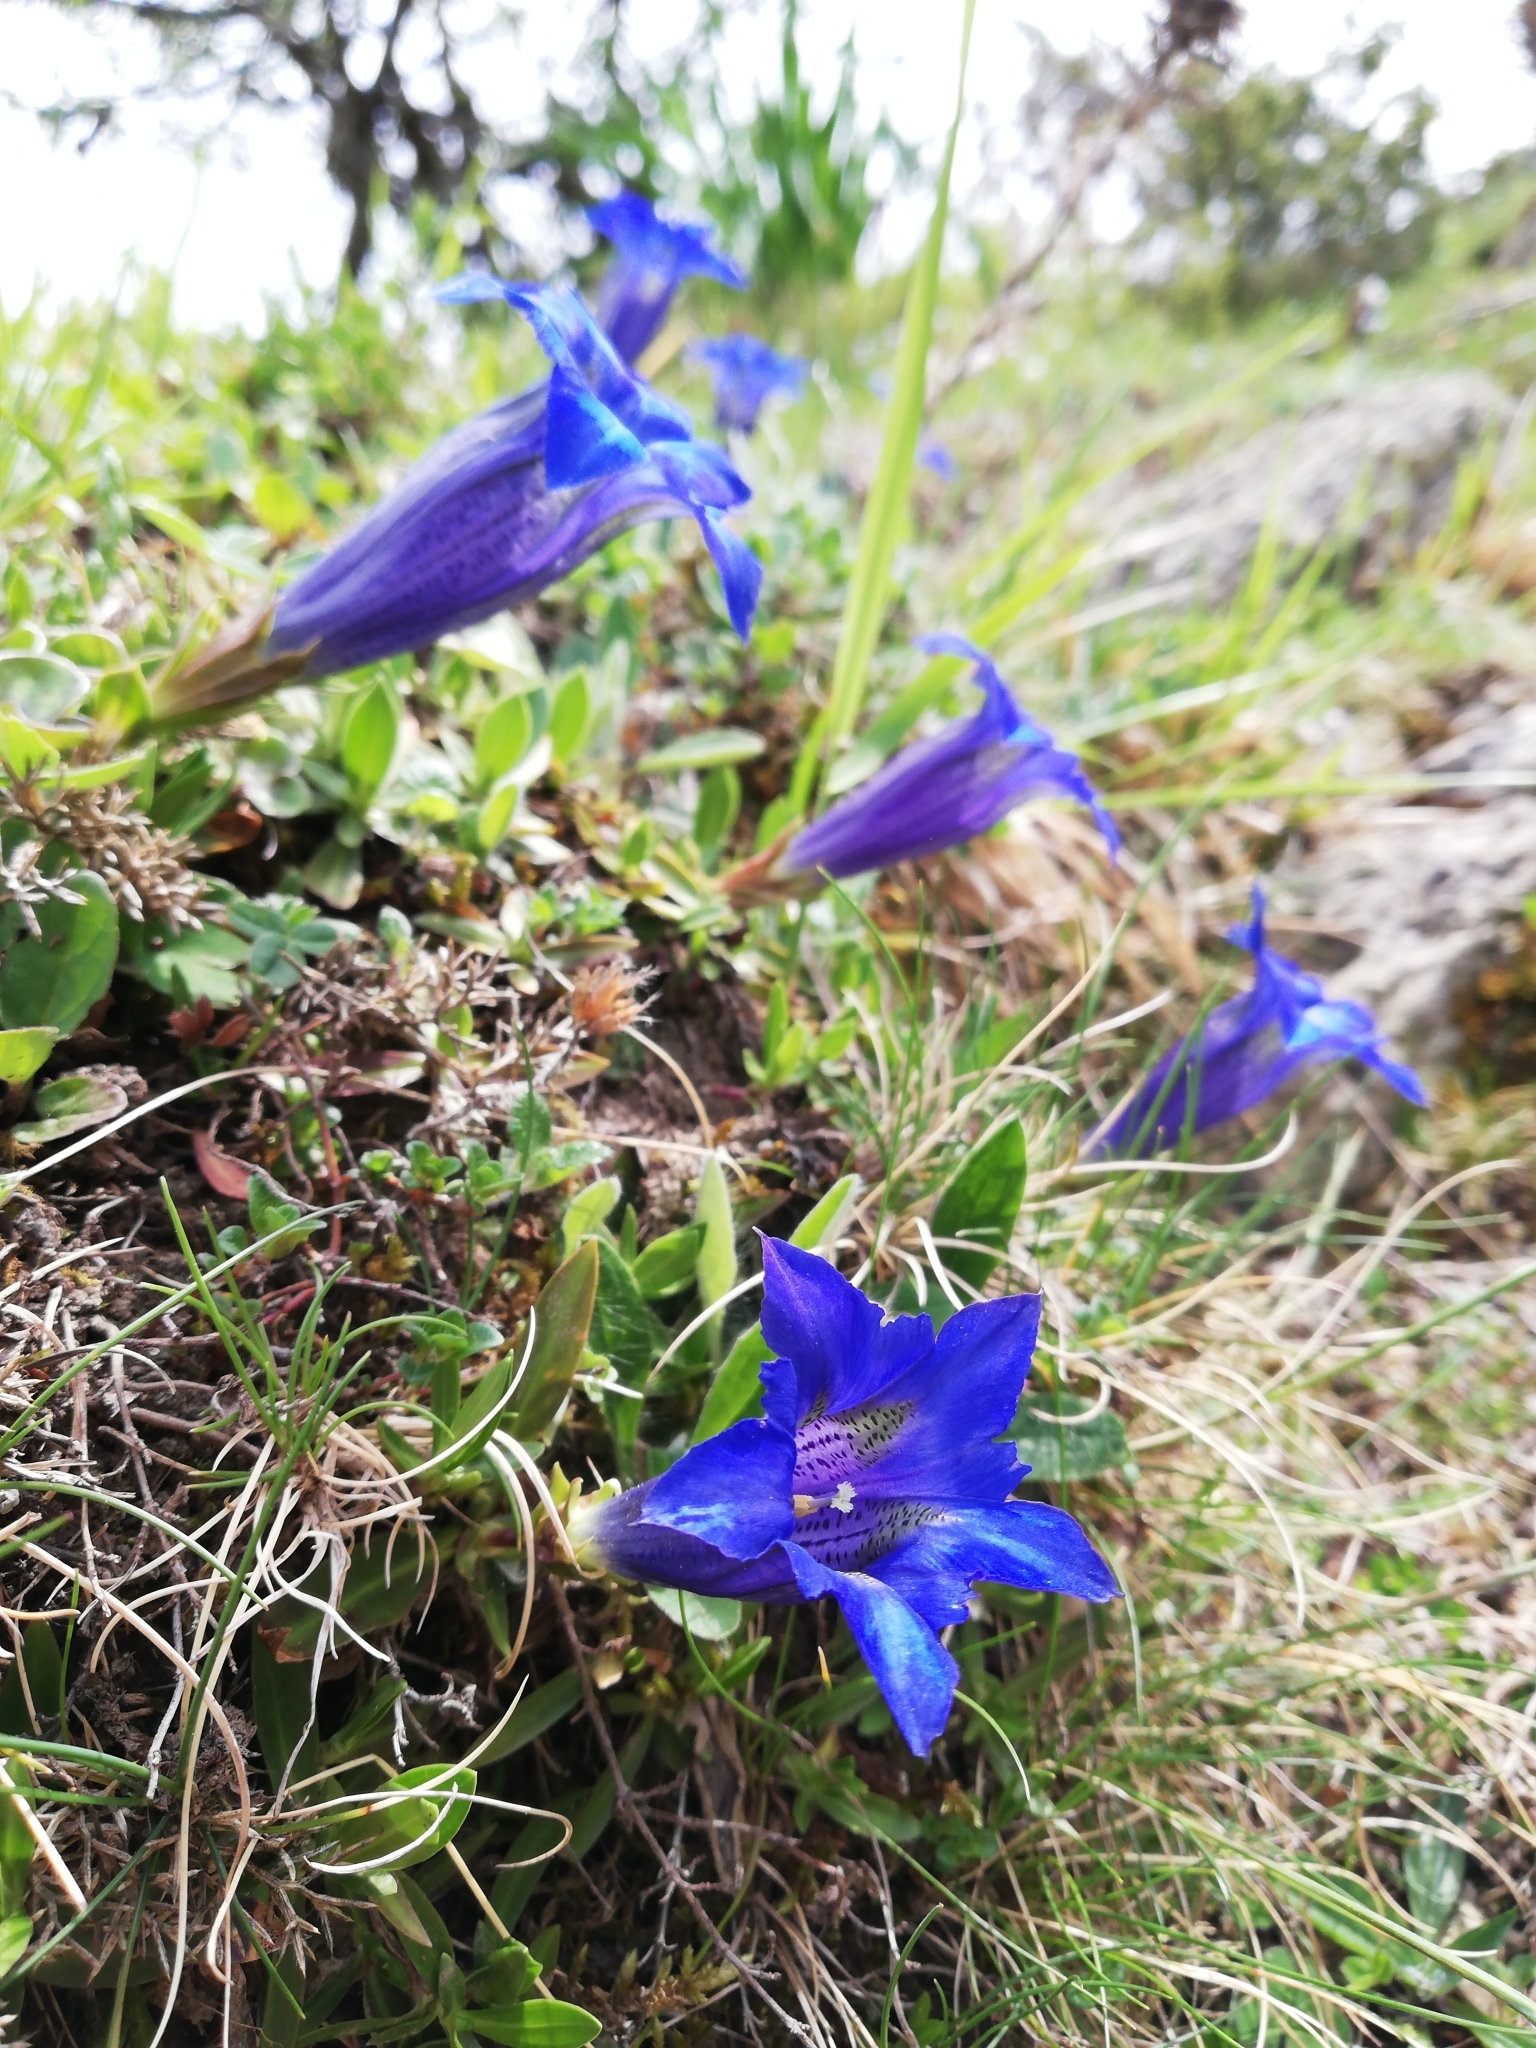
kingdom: Plantae
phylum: Tracheophyta
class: Magnoliopsida
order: Gentianales
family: Gentianaceae
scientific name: Gentianaceae
